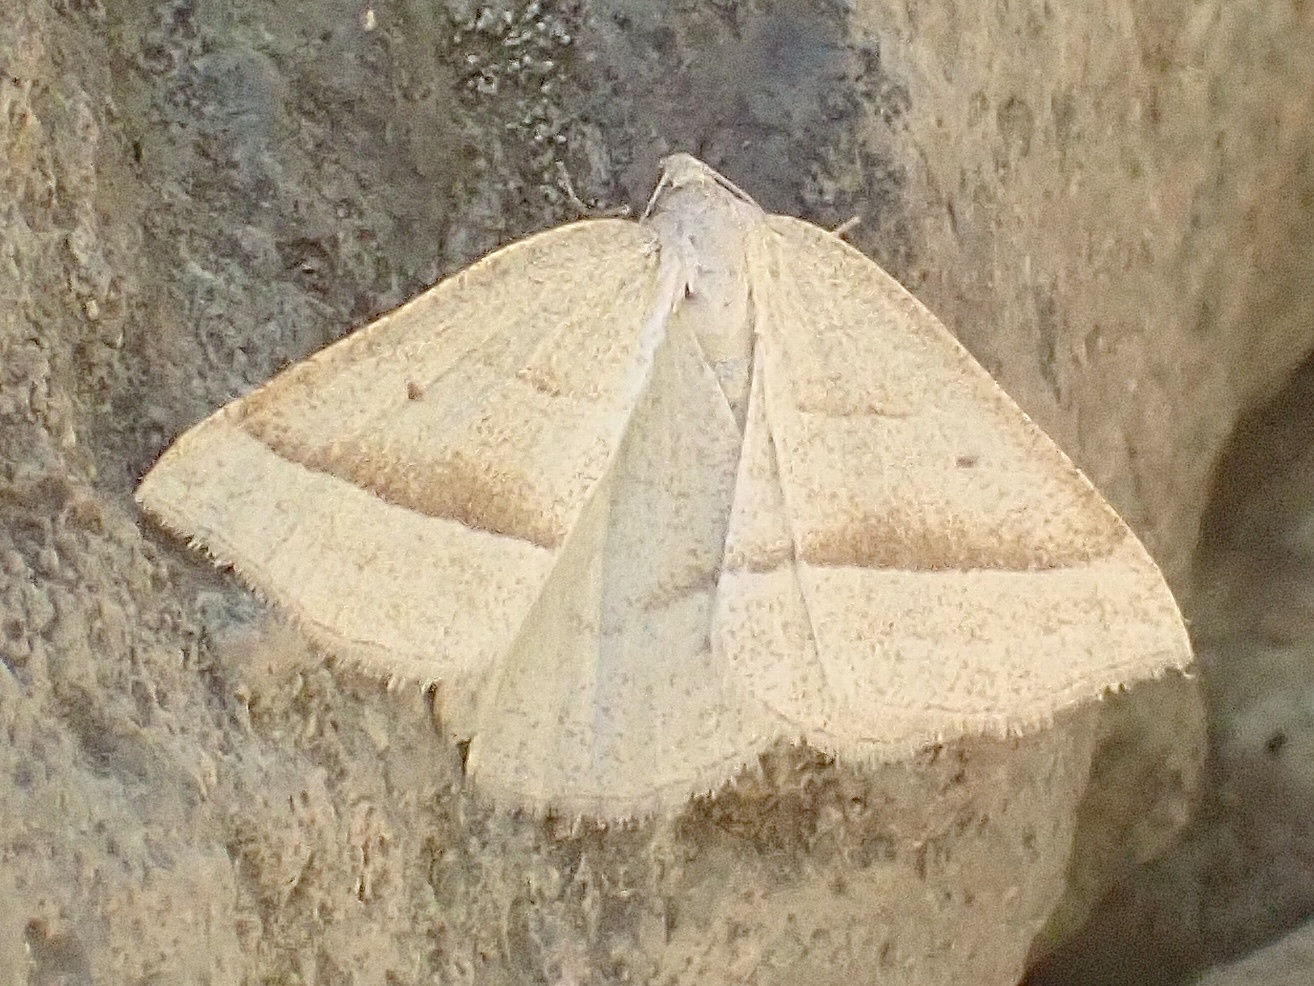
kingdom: Animalia
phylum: Arthropoda
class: Insecta
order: Lepidoptera
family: Pterophoridae
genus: Pterophorus
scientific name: Pterophorus Petrophora chlorosata
